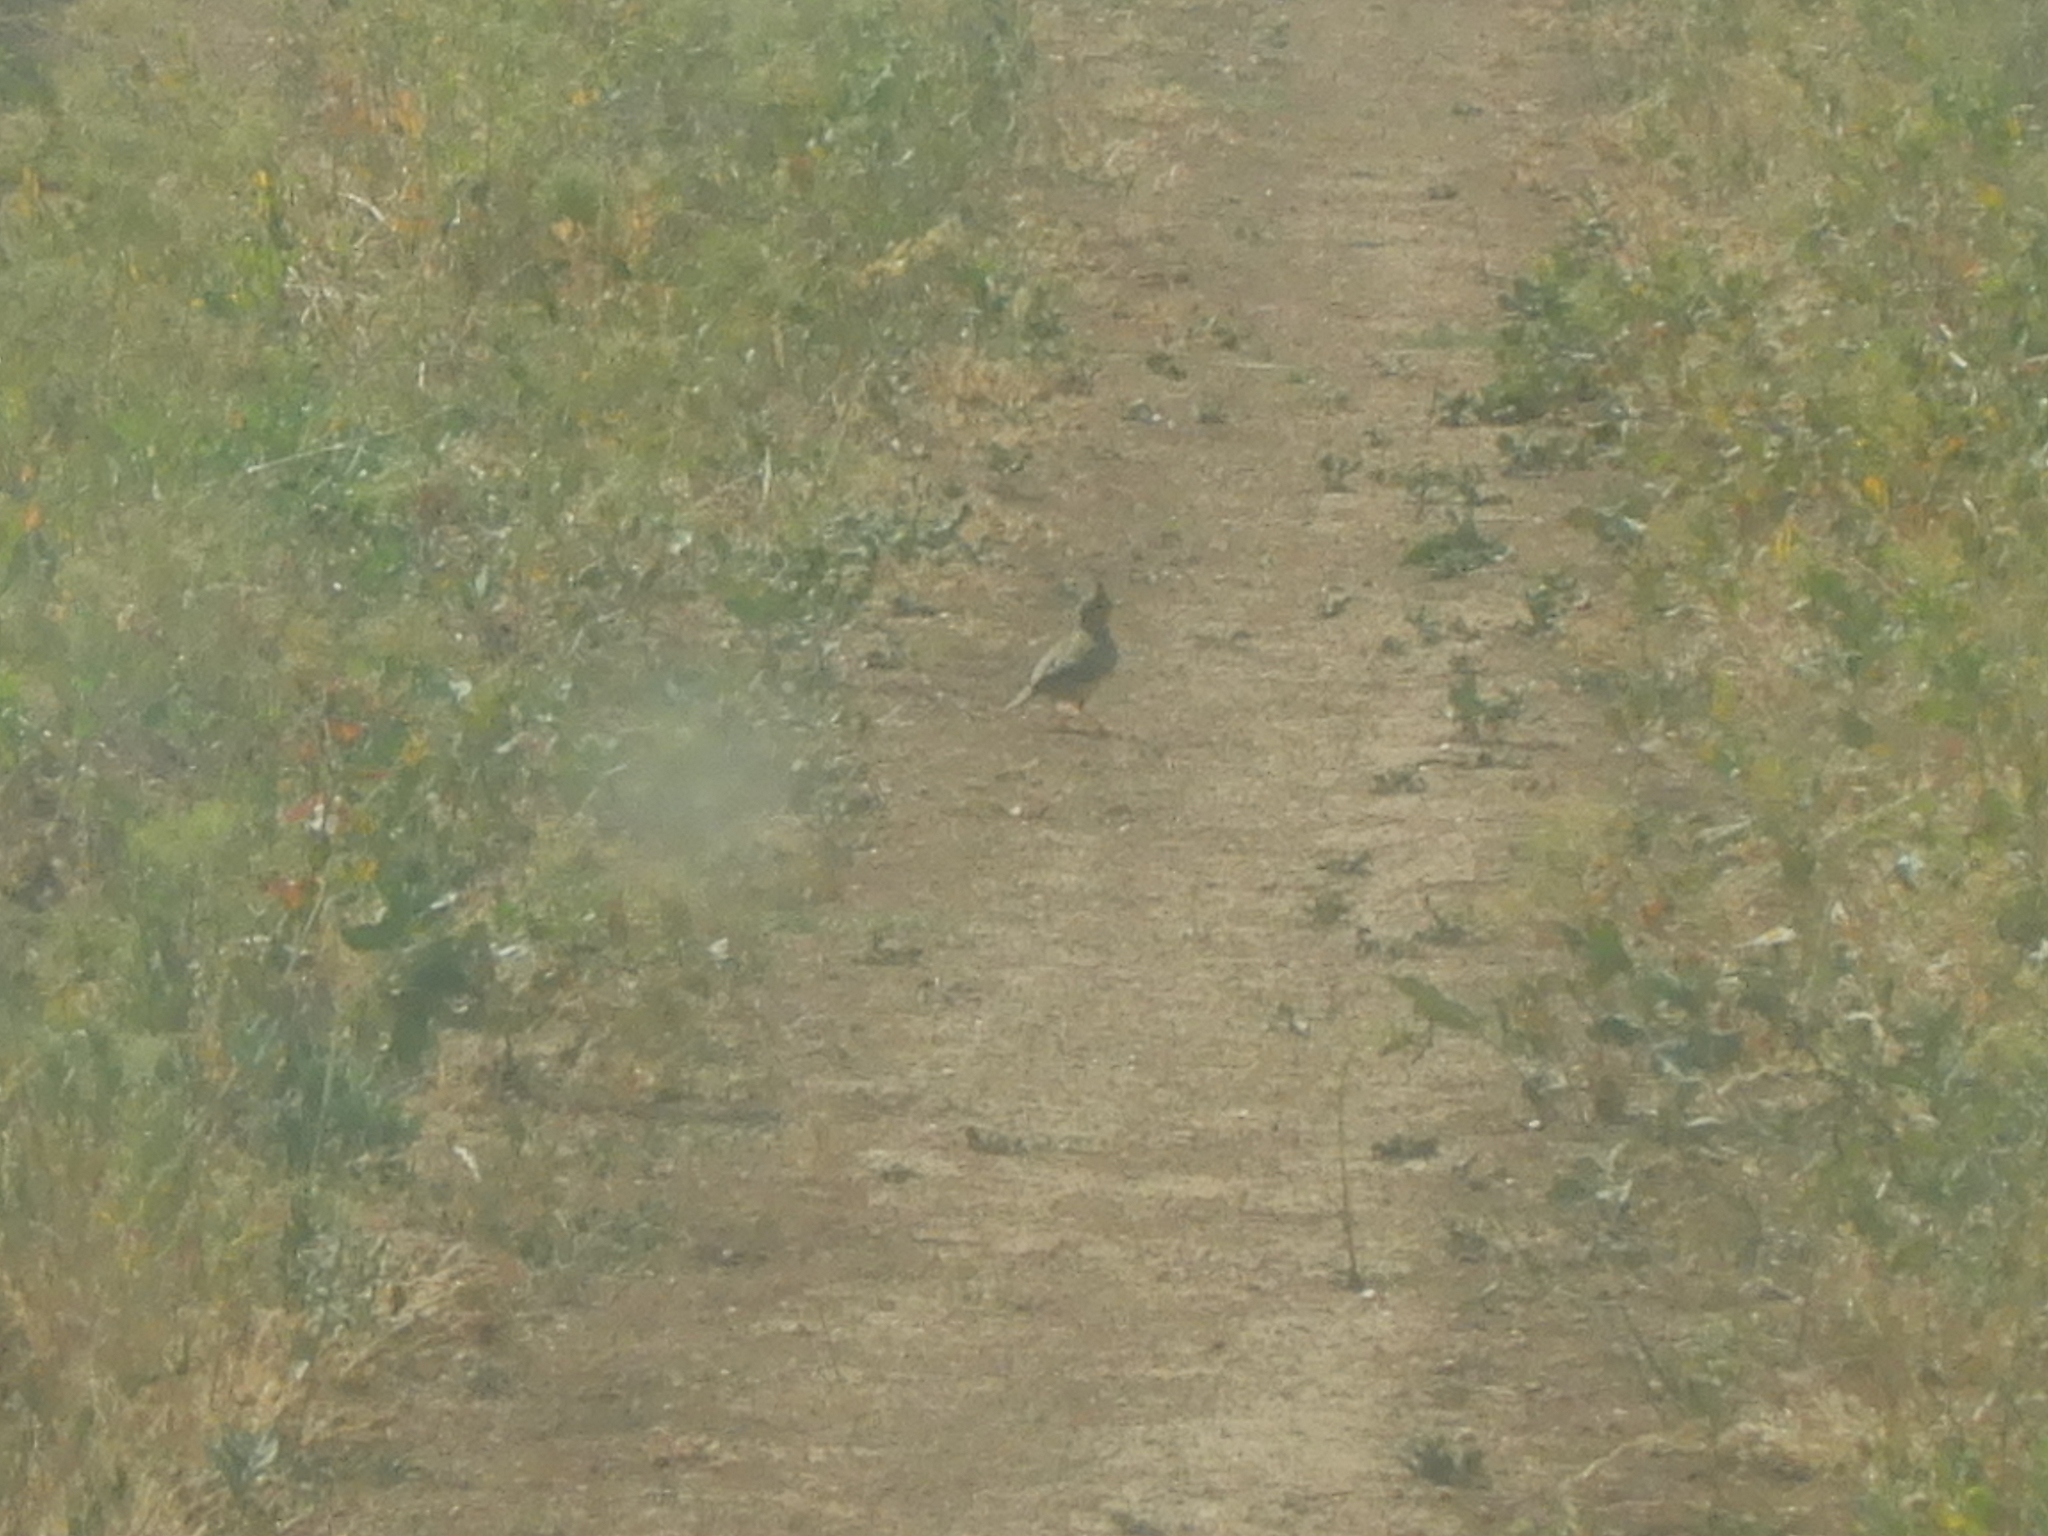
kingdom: Animalia
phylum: Chordata
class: Aves
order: Passeriformes
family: Alaudidae
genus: Galerida
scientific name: Galerida cristata
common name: Crested lark
